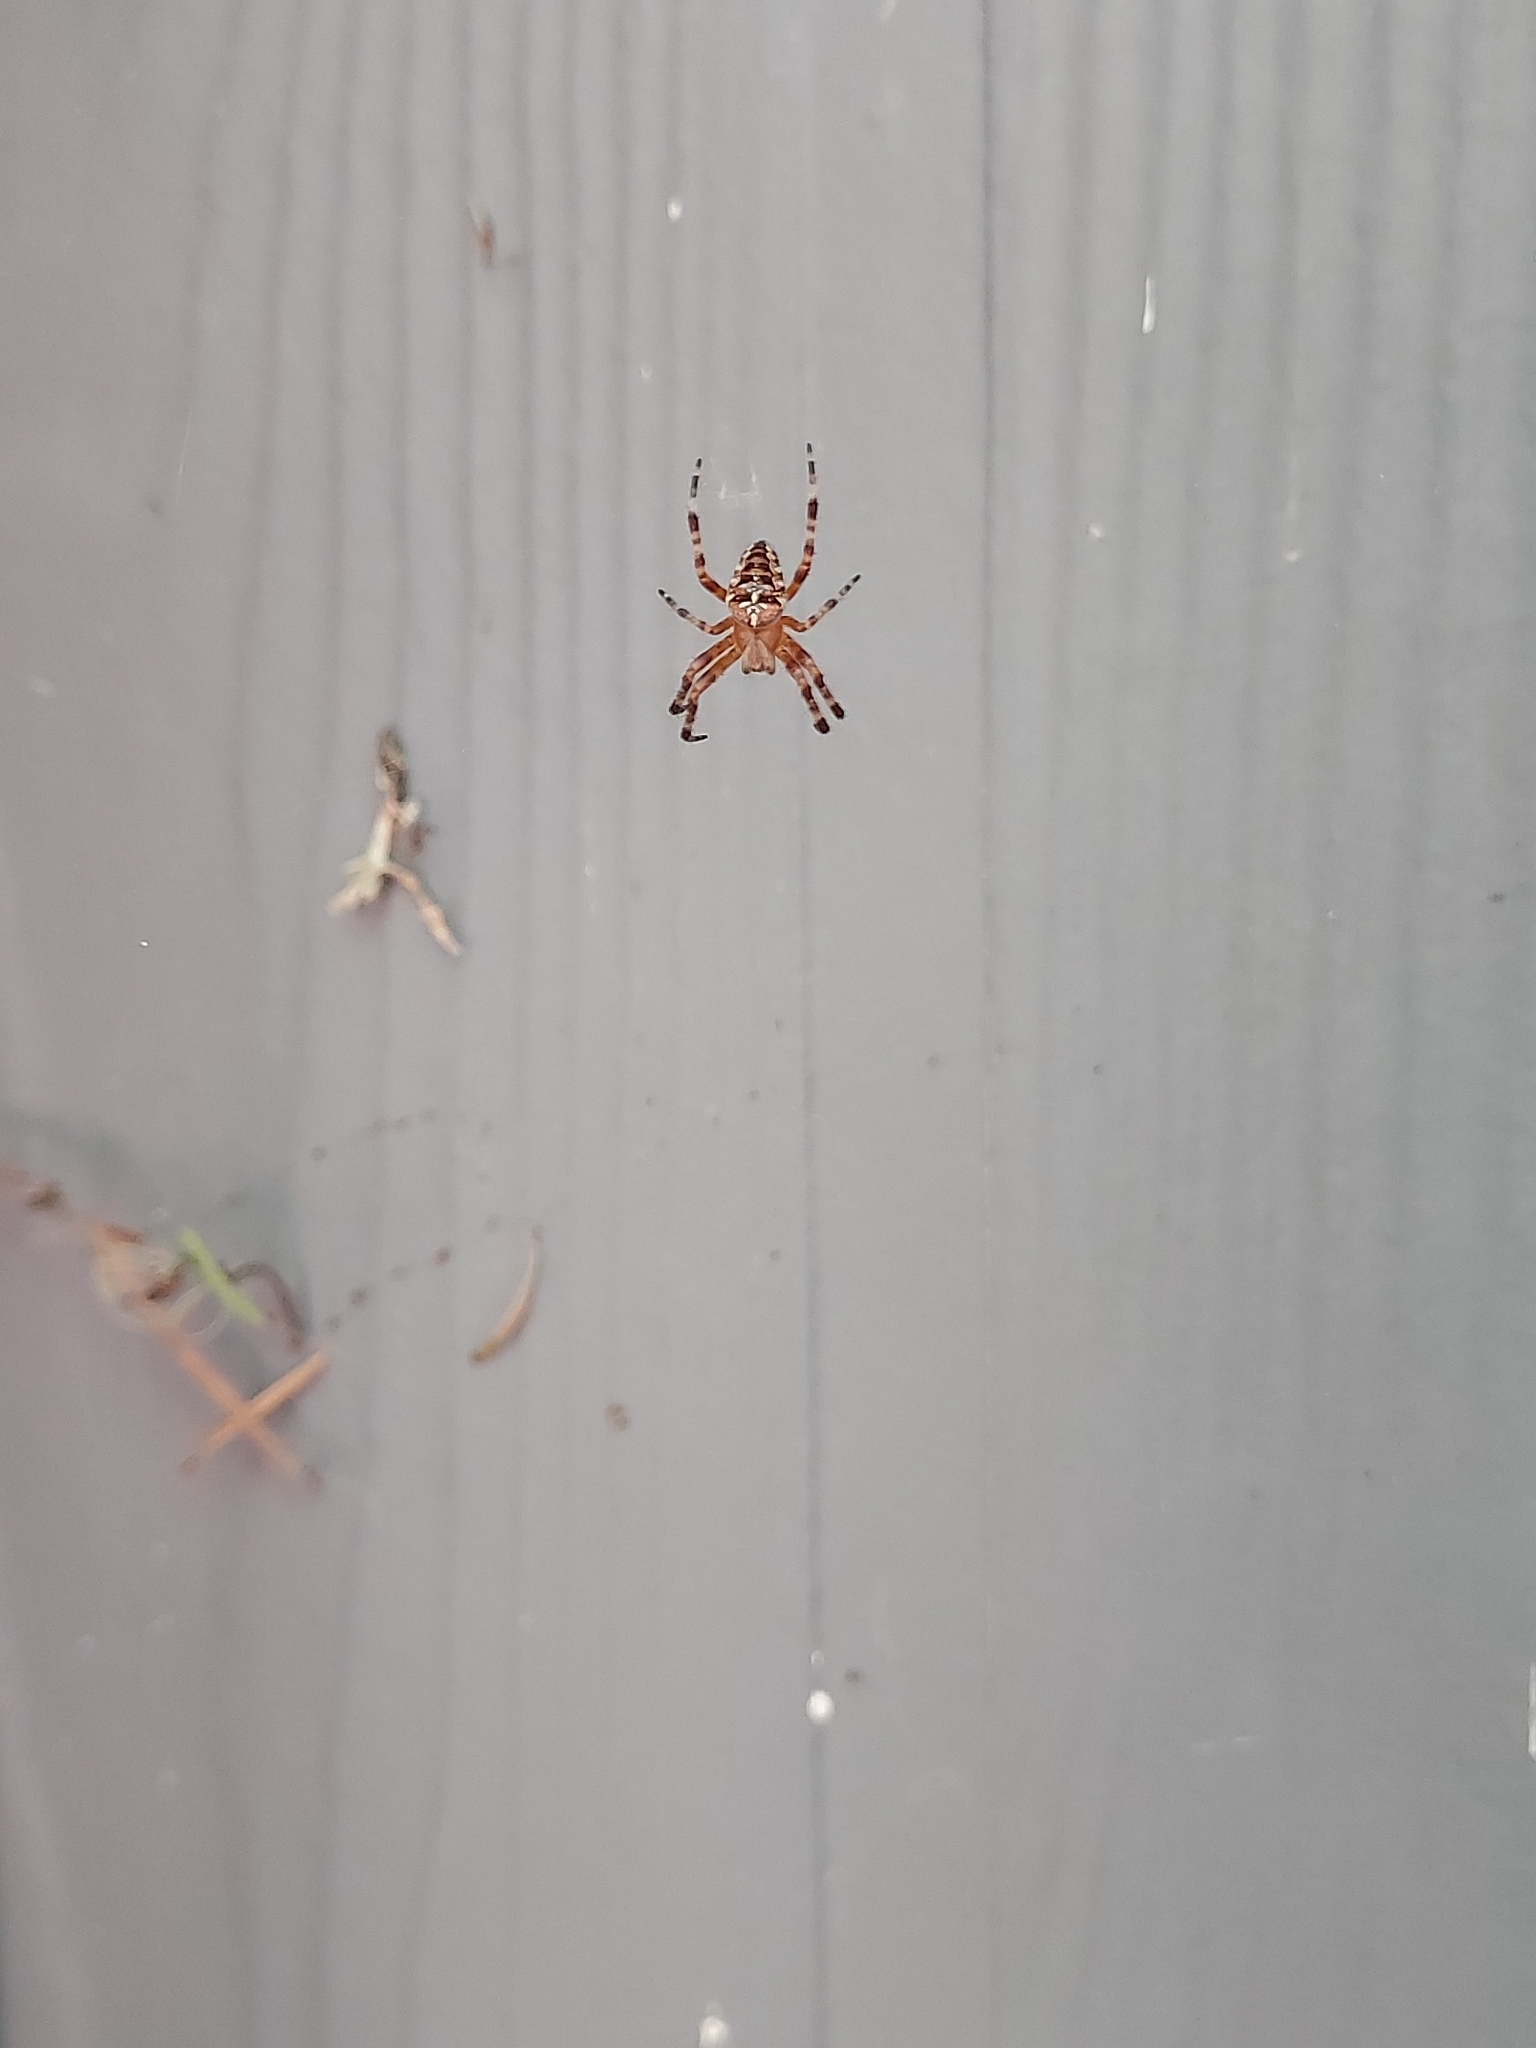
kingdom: Animalia
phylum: Arthropoda
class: Arachnida
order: Araneae
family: Araneidae
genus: Araneus
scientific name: Araneus diadematus
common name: Cross orbweaver
